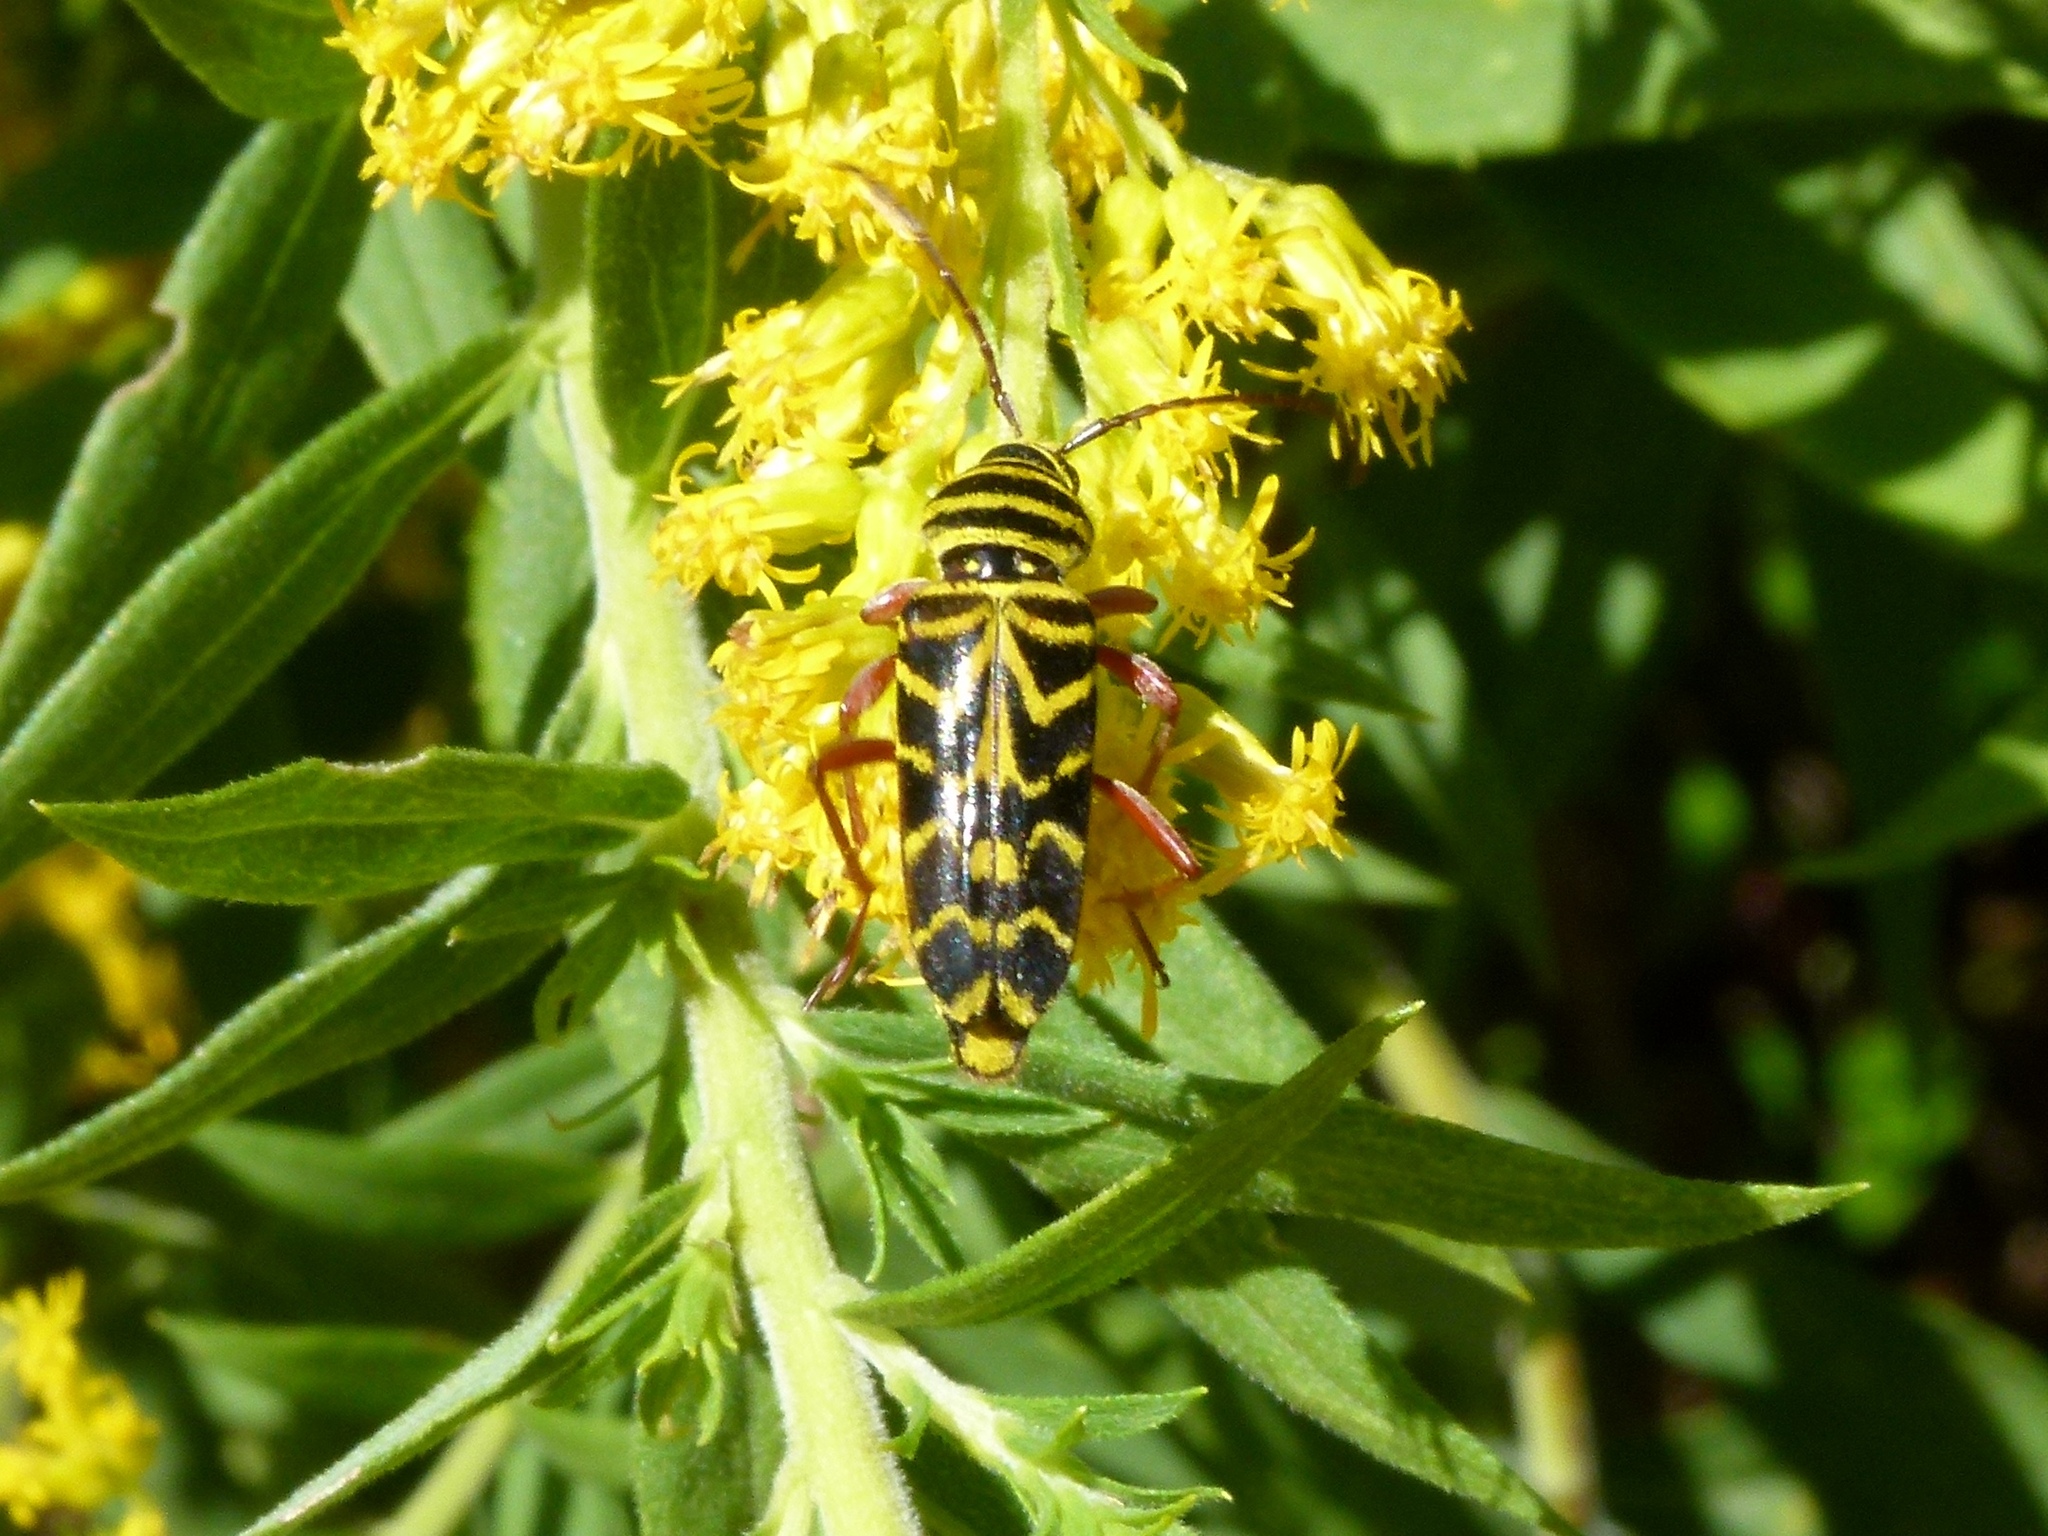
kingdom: Animalia
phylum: Arthropoda
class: Insecta
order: Coleoptera
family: Cerambycidae
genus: Megacyllene
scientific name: Megacyllene robiniae
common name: Locust borer
